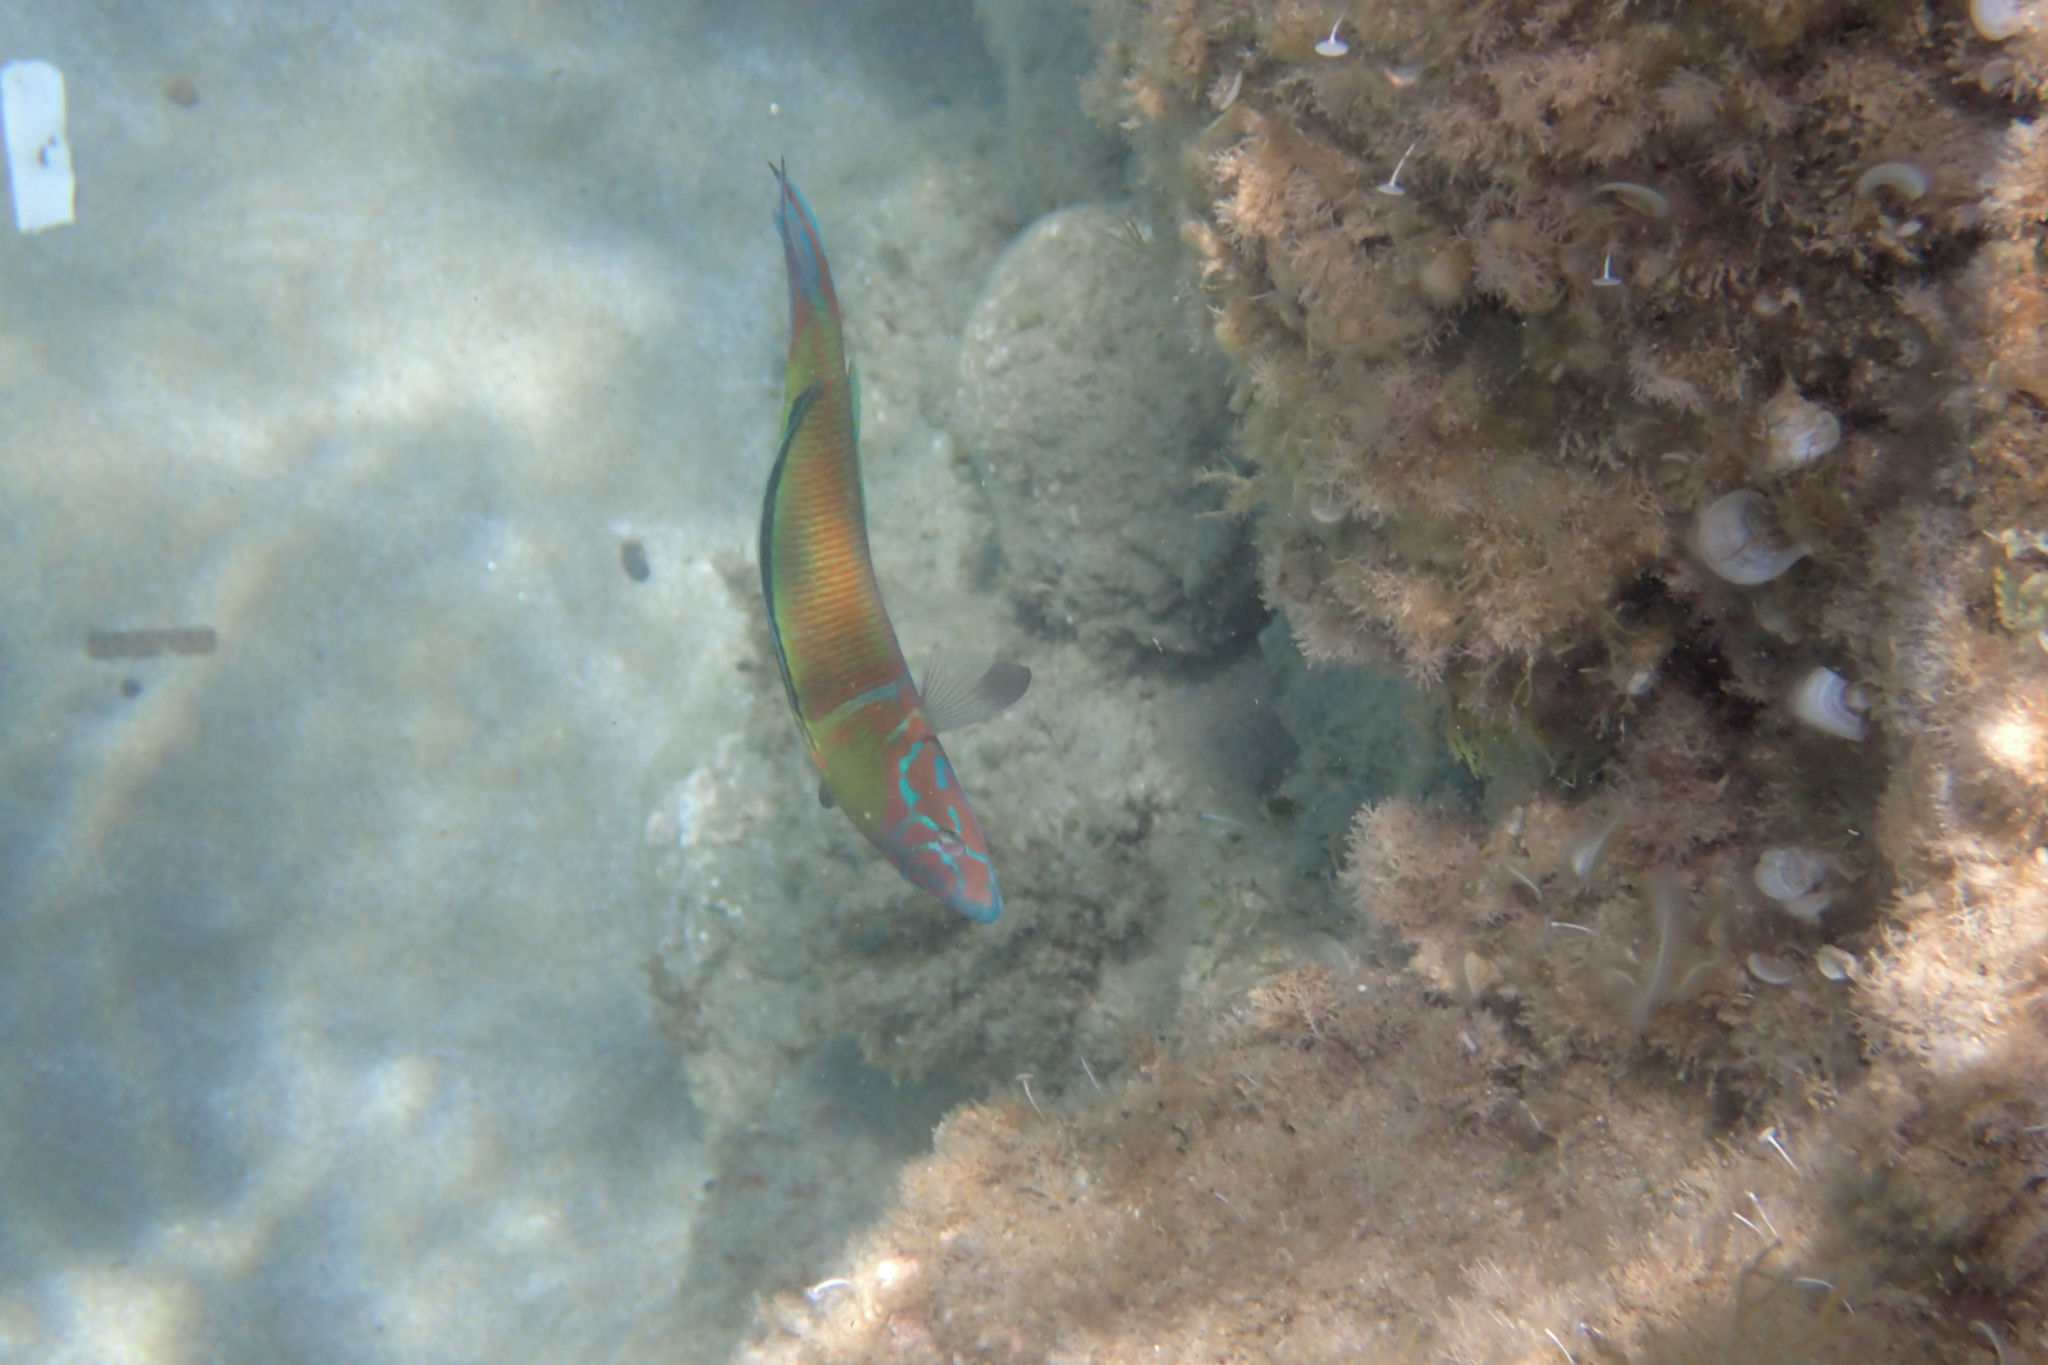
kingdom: Animalia
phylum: Chordata
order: Perciformes
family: Labridae
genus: Thalassoma
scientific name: Thalassoma pavo
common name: Ornate wrasse
